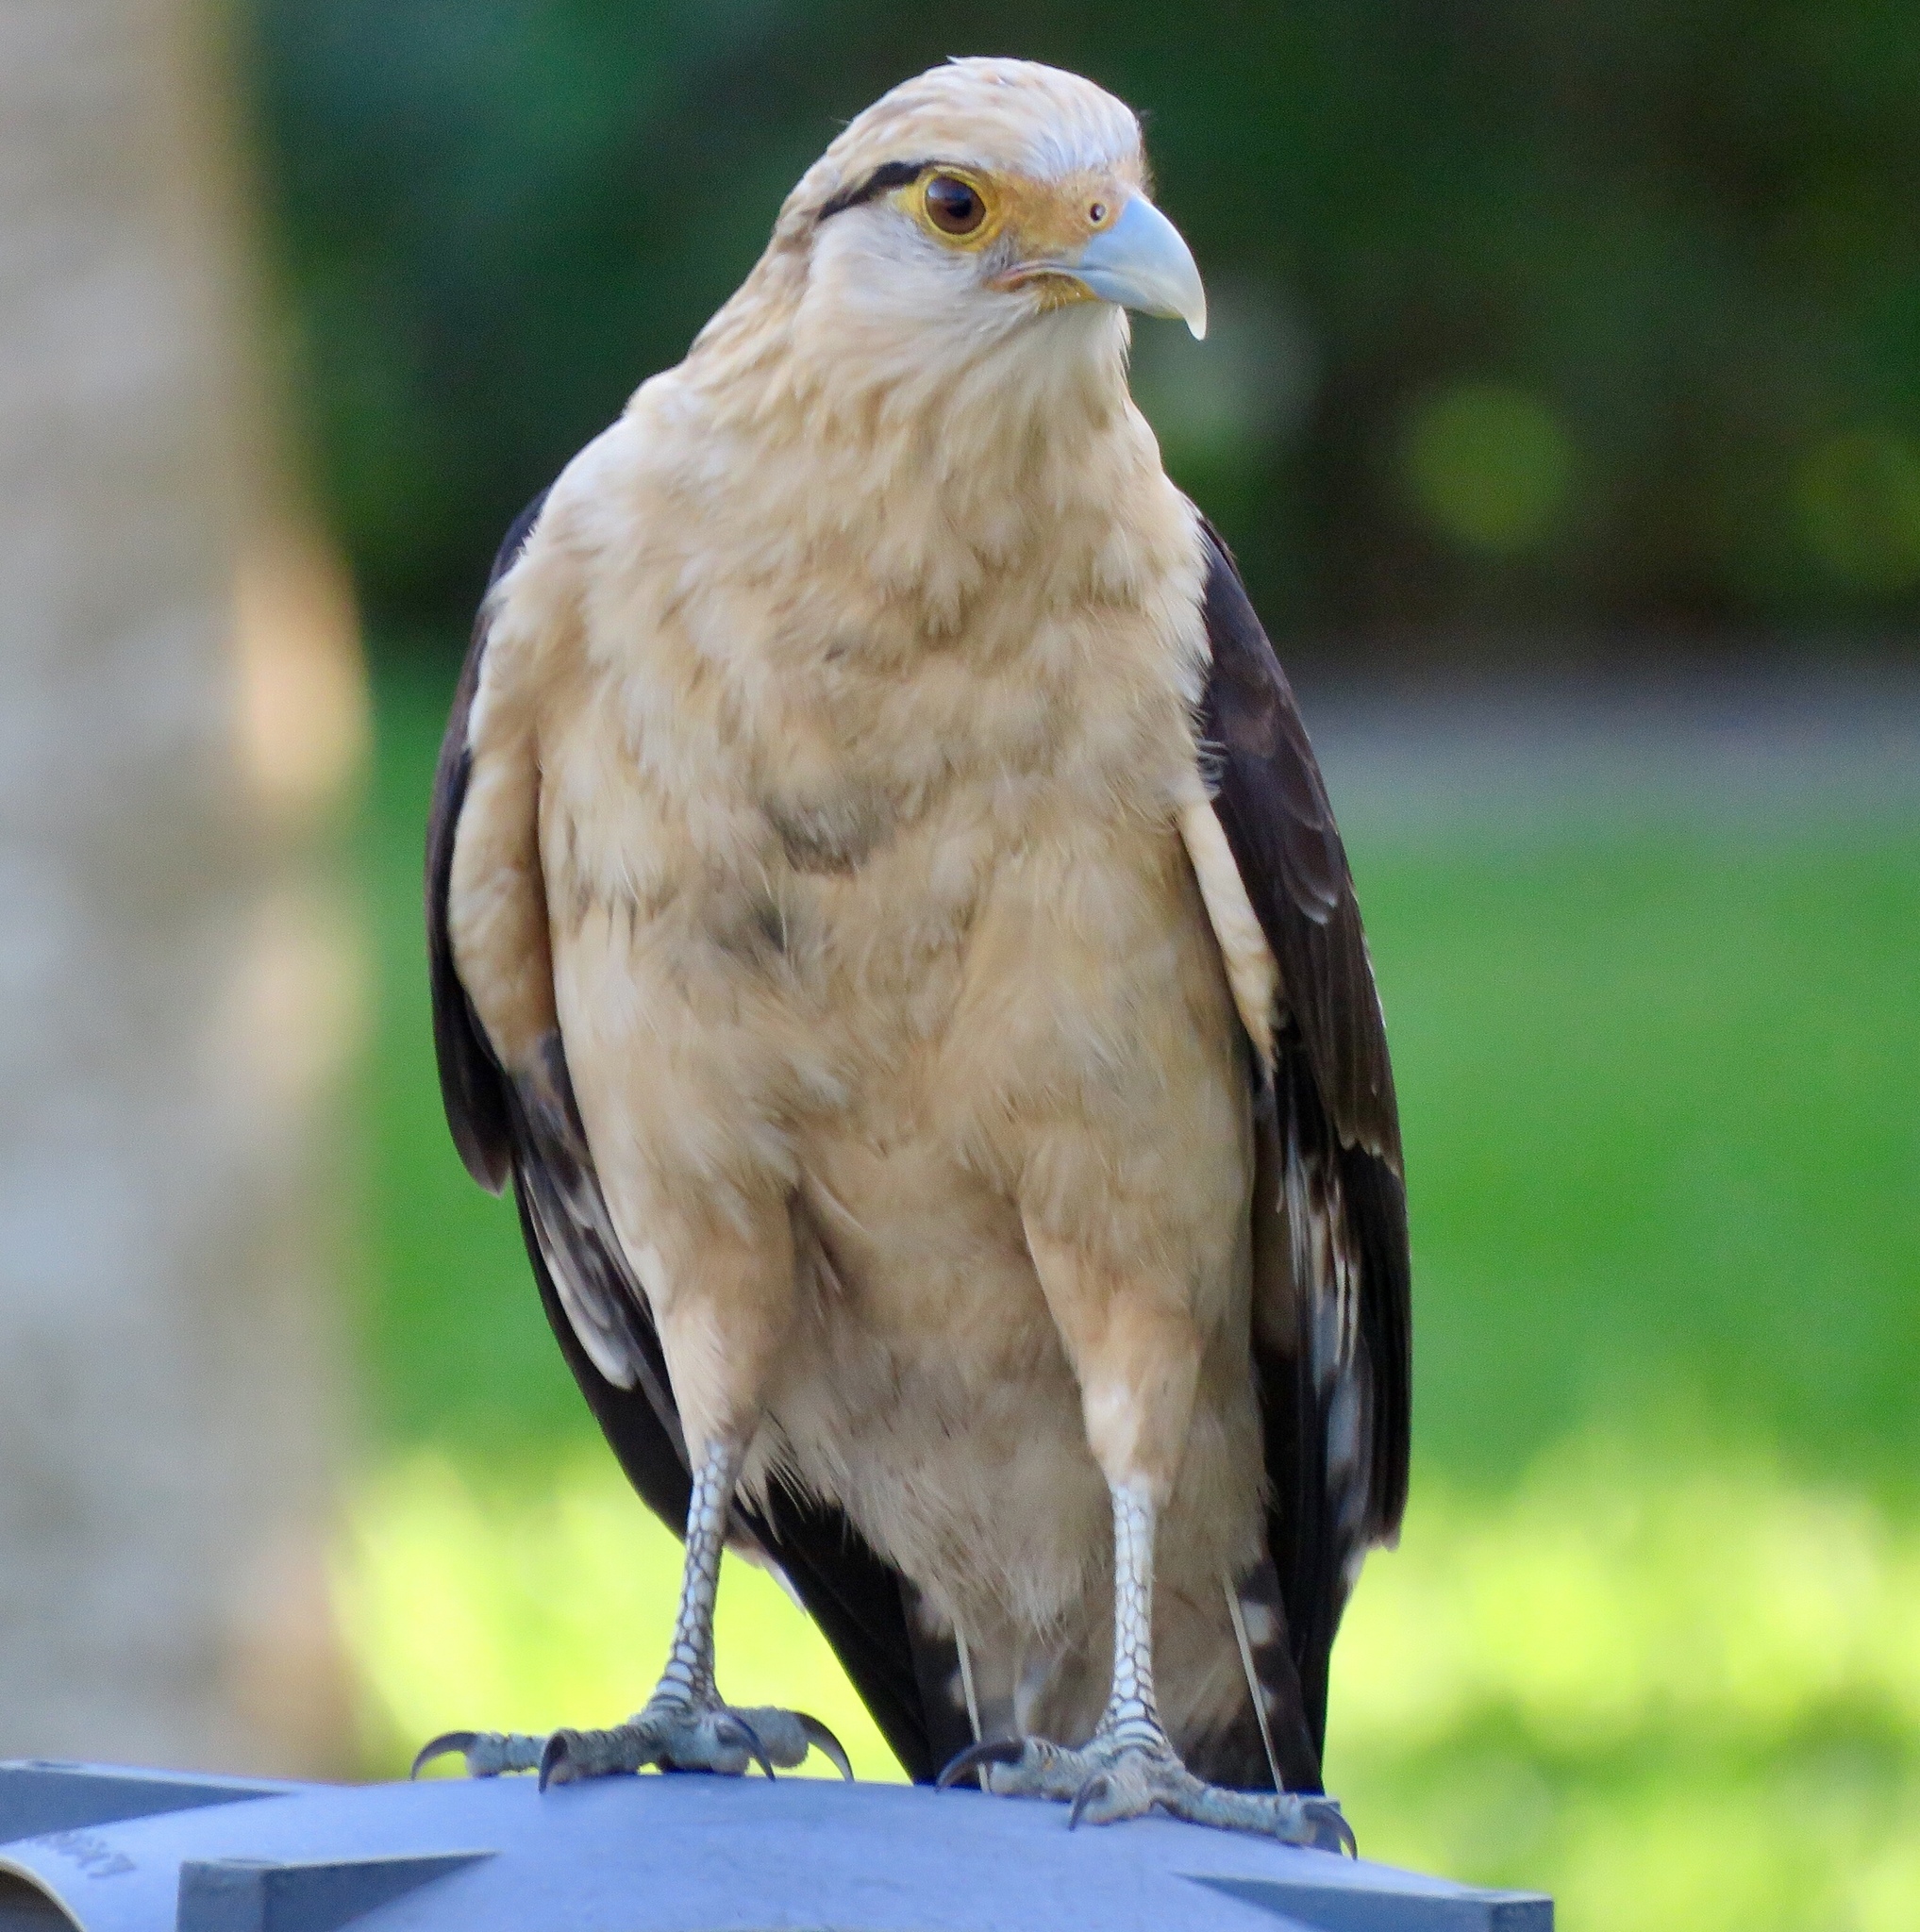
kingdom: Animalia
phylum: Chordata
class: Aves
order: Falconiformes
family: Falconidae
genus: Daptrius
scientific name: Daptrius
